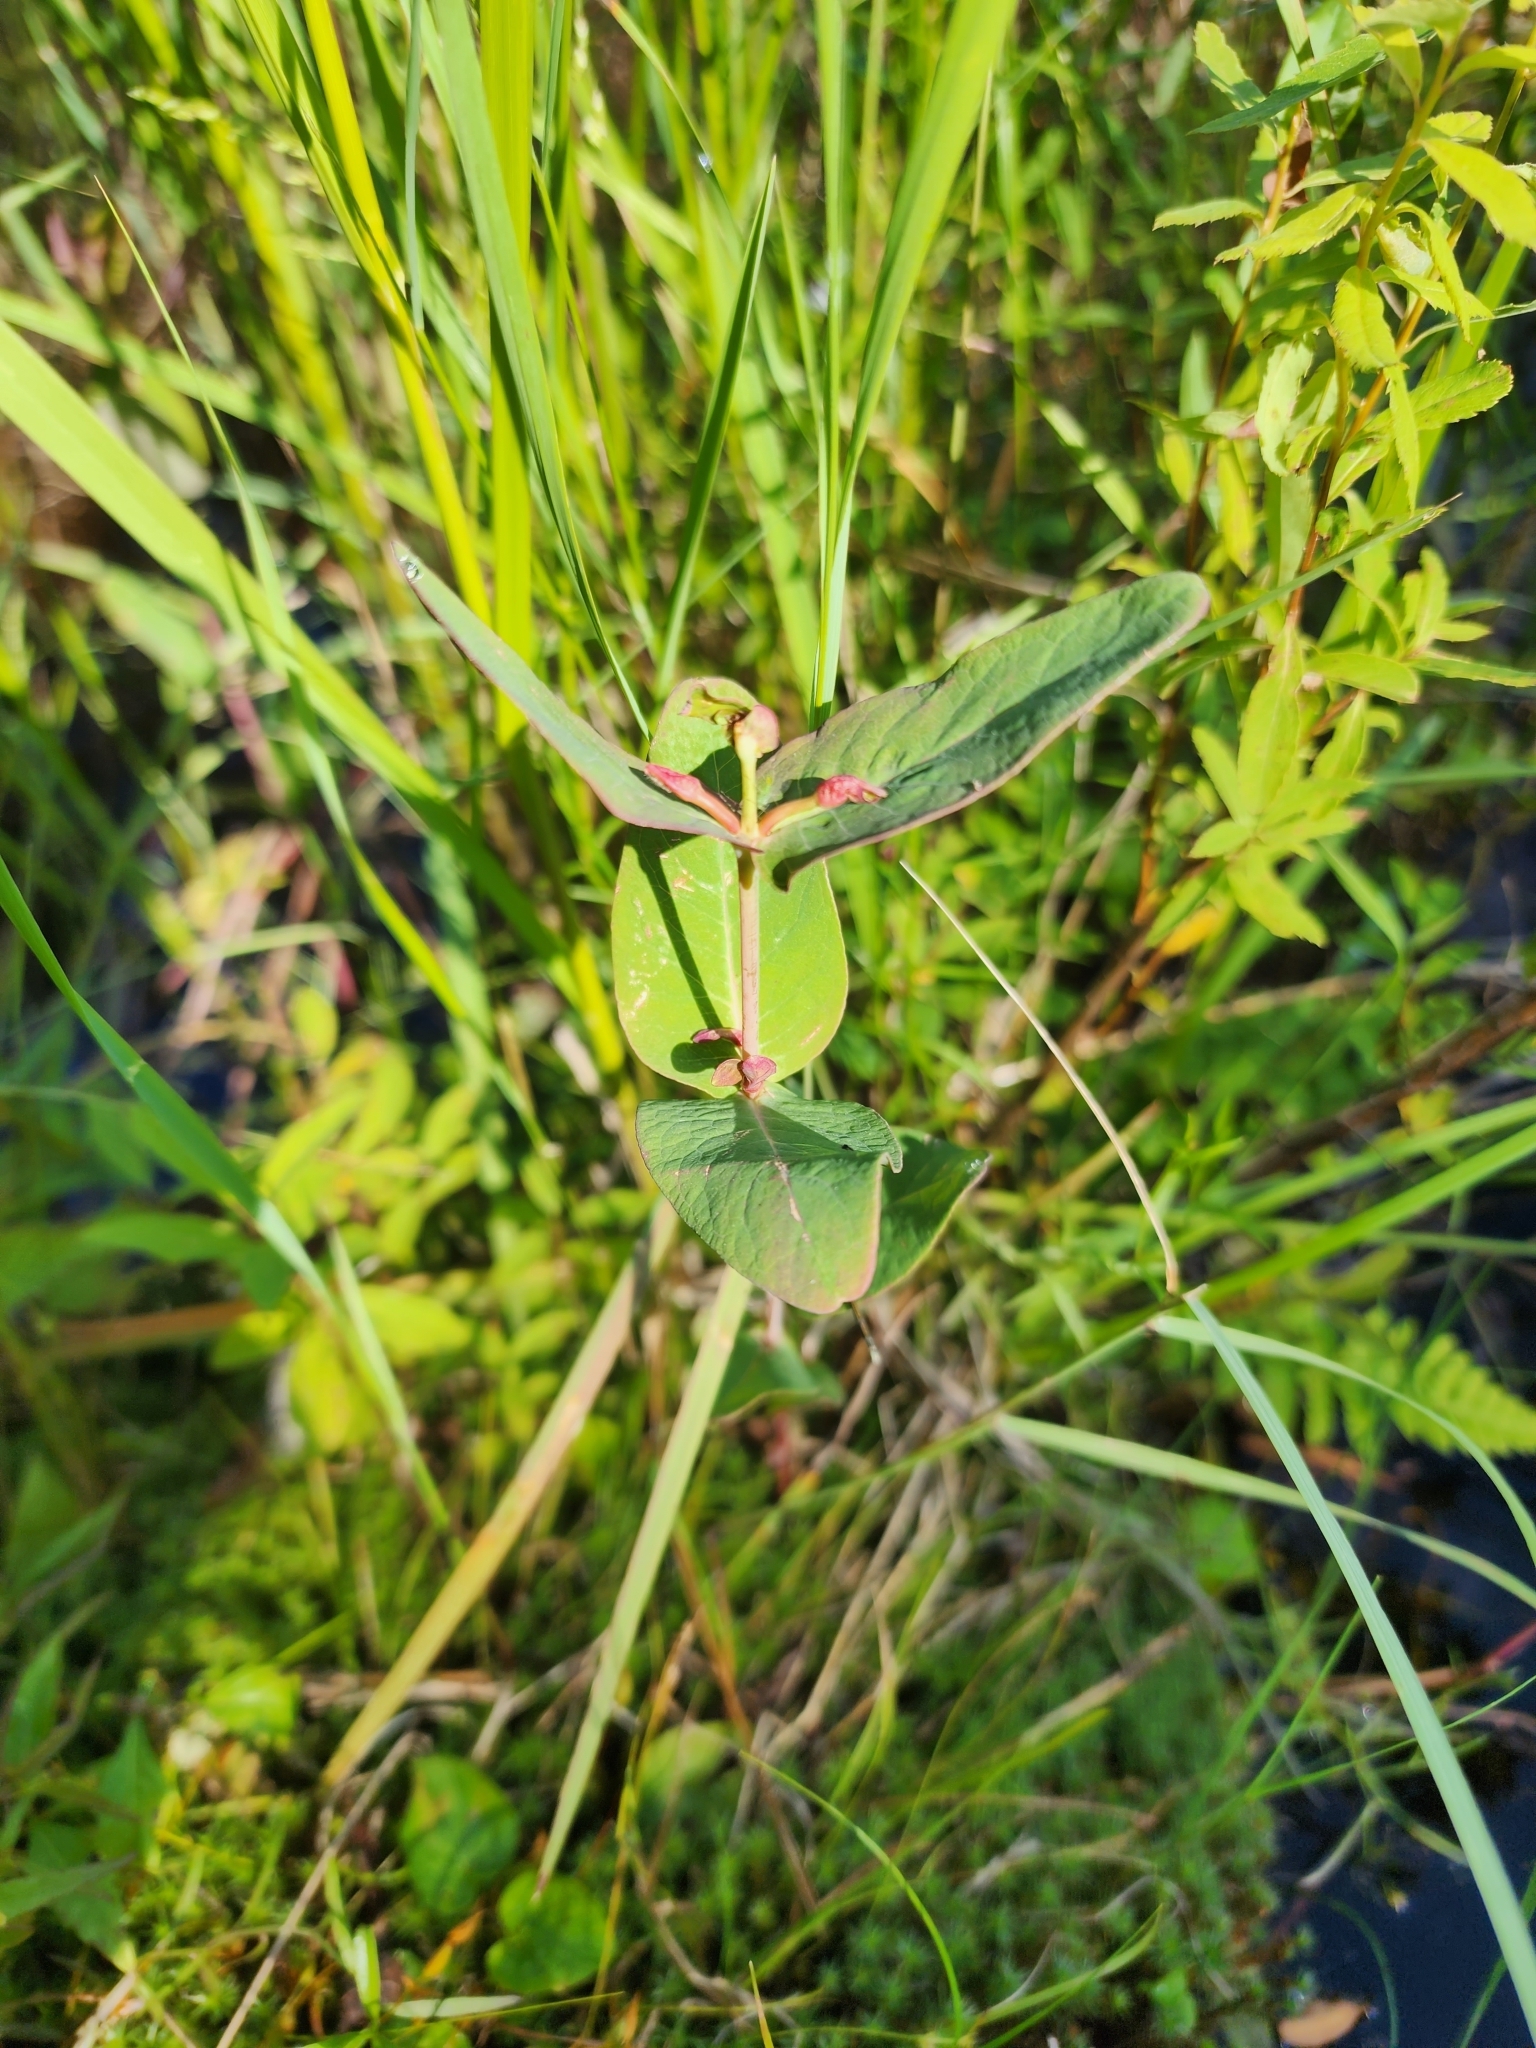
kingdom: Plantae
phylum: Tracheophyta
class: Magnoliopsida
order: Malpighiales
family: Hypericaceae
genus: Triadenum
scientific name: Triadenum fraseri
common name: Fraser's marsh st. johnswort
